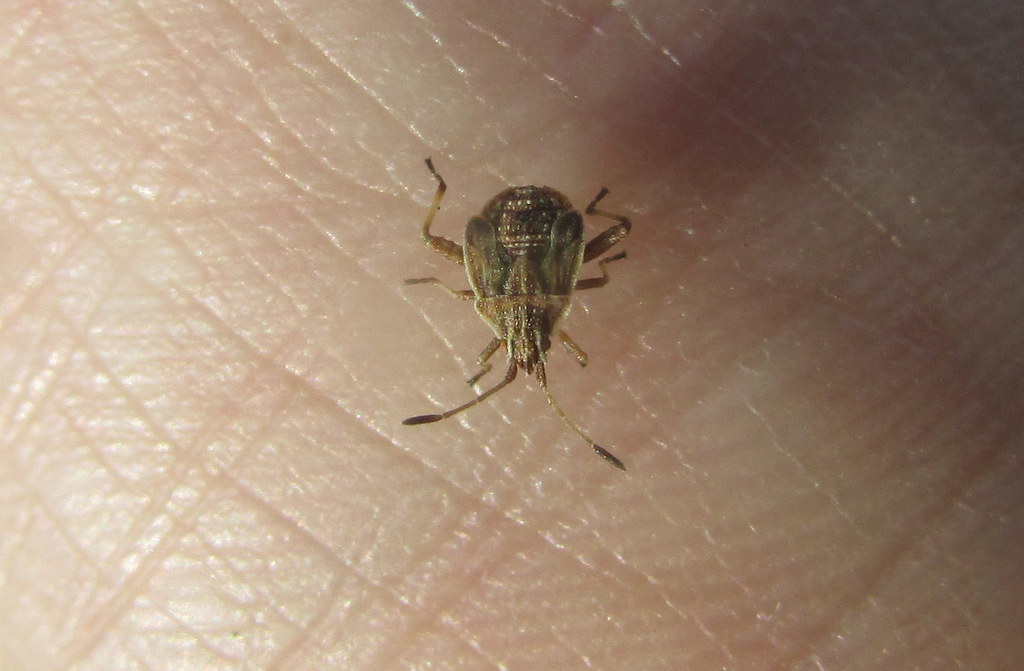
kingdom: Animalia
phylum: Arthropoda
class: Insecta
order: Hemiptera
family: Rhopalidae
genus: Harmostes
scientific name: Harmostes
